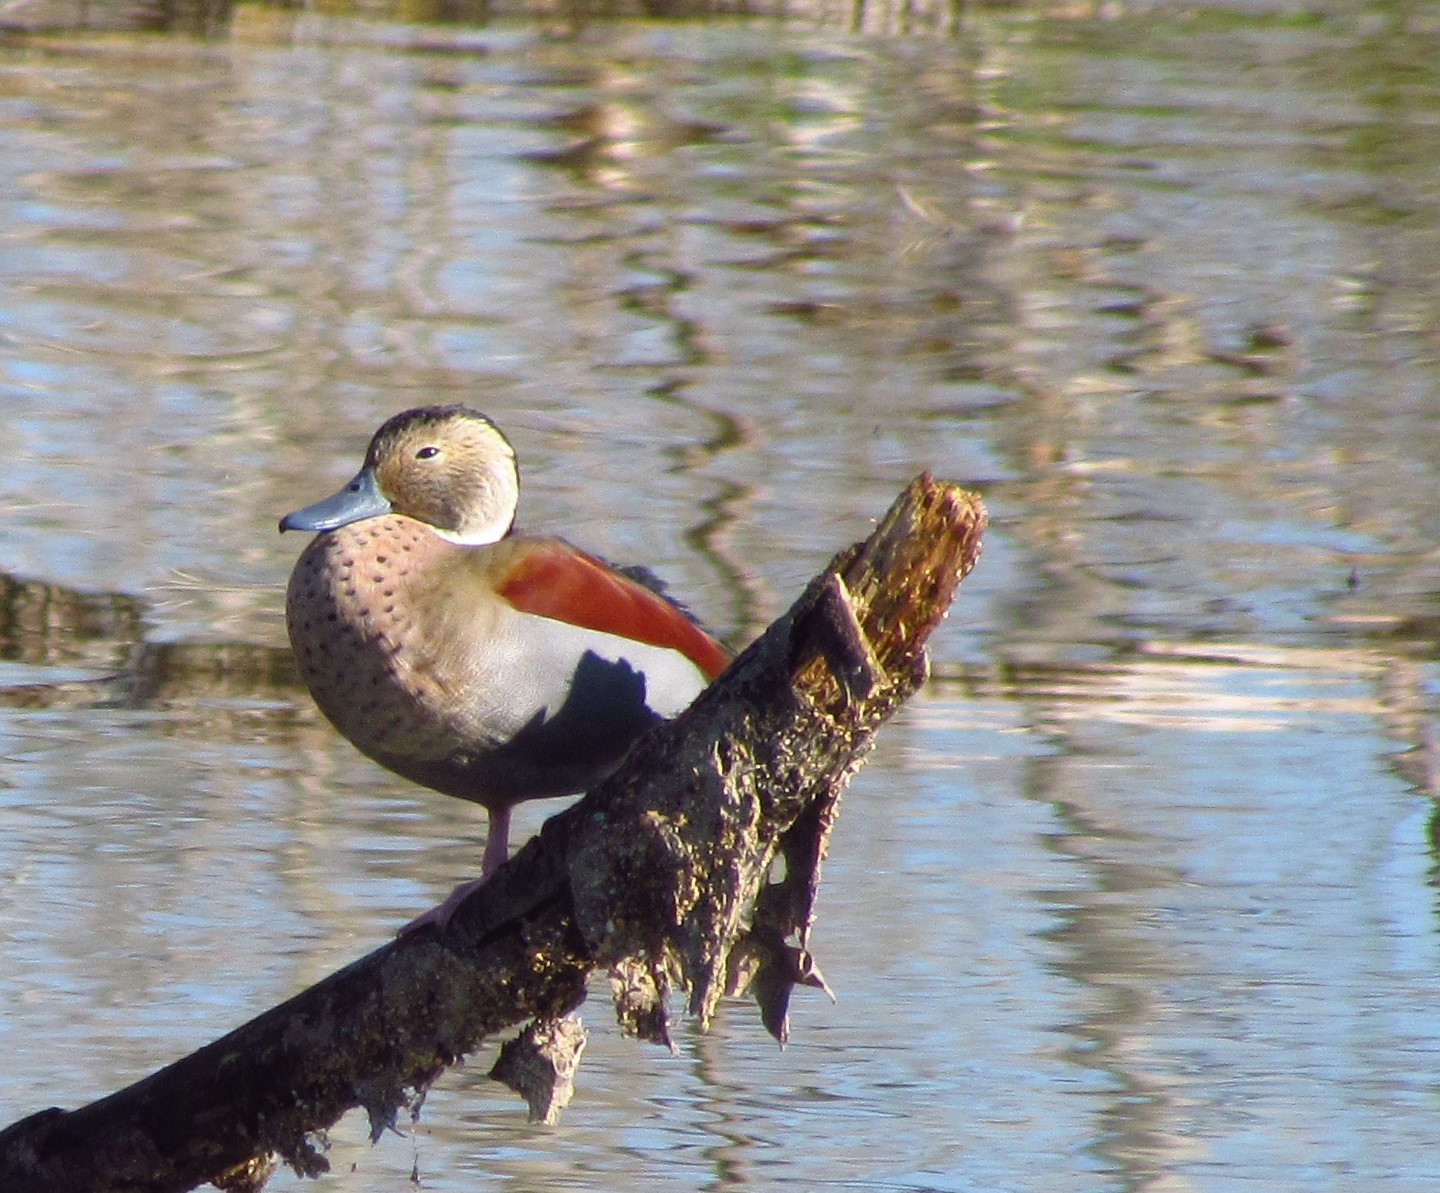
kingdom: Animalia
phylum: Chordata
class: Aves
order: Anseriformes
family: Anatidae
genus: Callonetta
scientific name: Callonetta leucophrys
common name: Ringed teal
